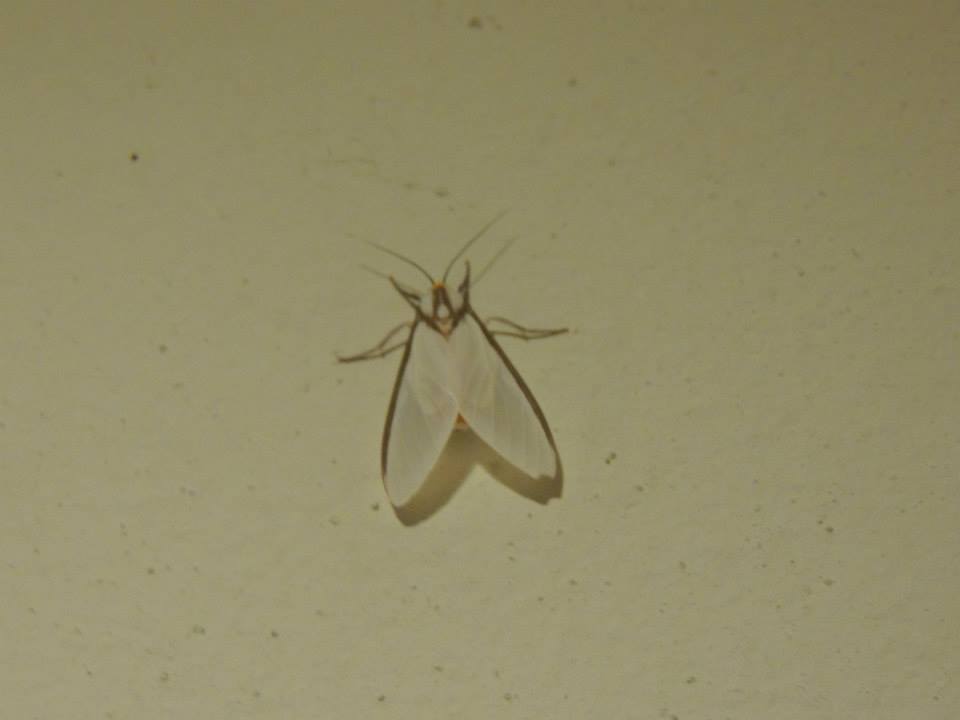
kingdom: Animalia
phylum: Arthropoda
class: Insecta
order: Lepidoptera
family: Erebidae
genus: Robinsonia
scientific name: Robinsonia sabata
